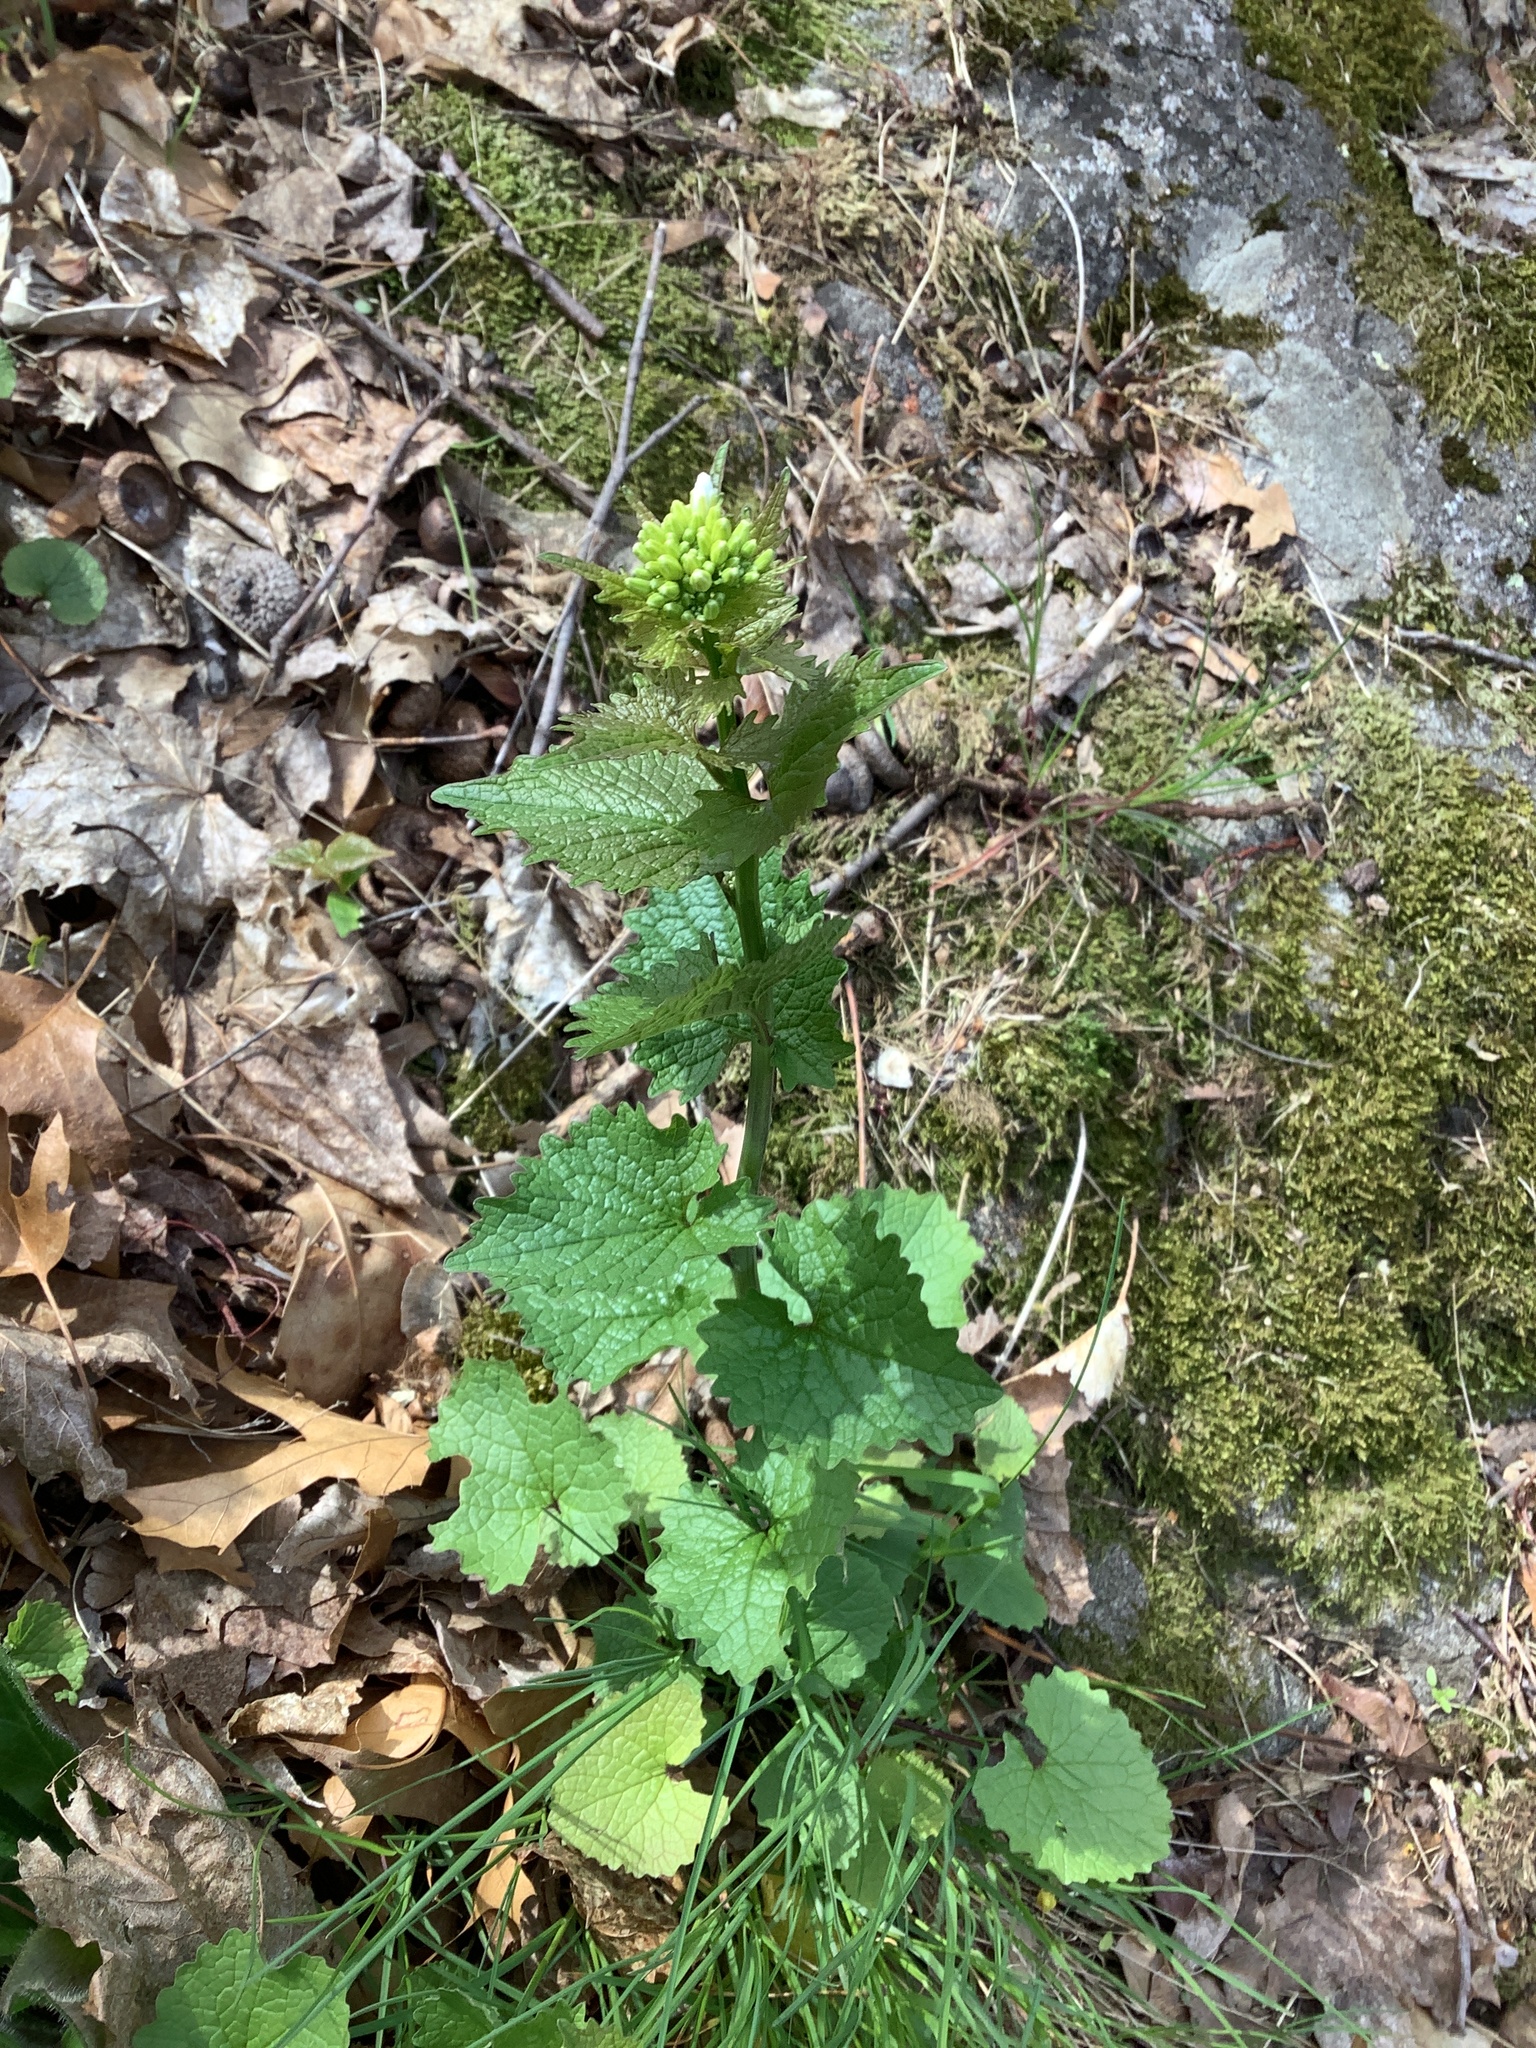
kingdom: Plantae
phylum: Tracheophyta
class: Magnoliopsida
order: Brassicales
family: Brassicaceae
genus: Alliaria
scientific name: Alliaria petiolata
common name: Garlic mustard
